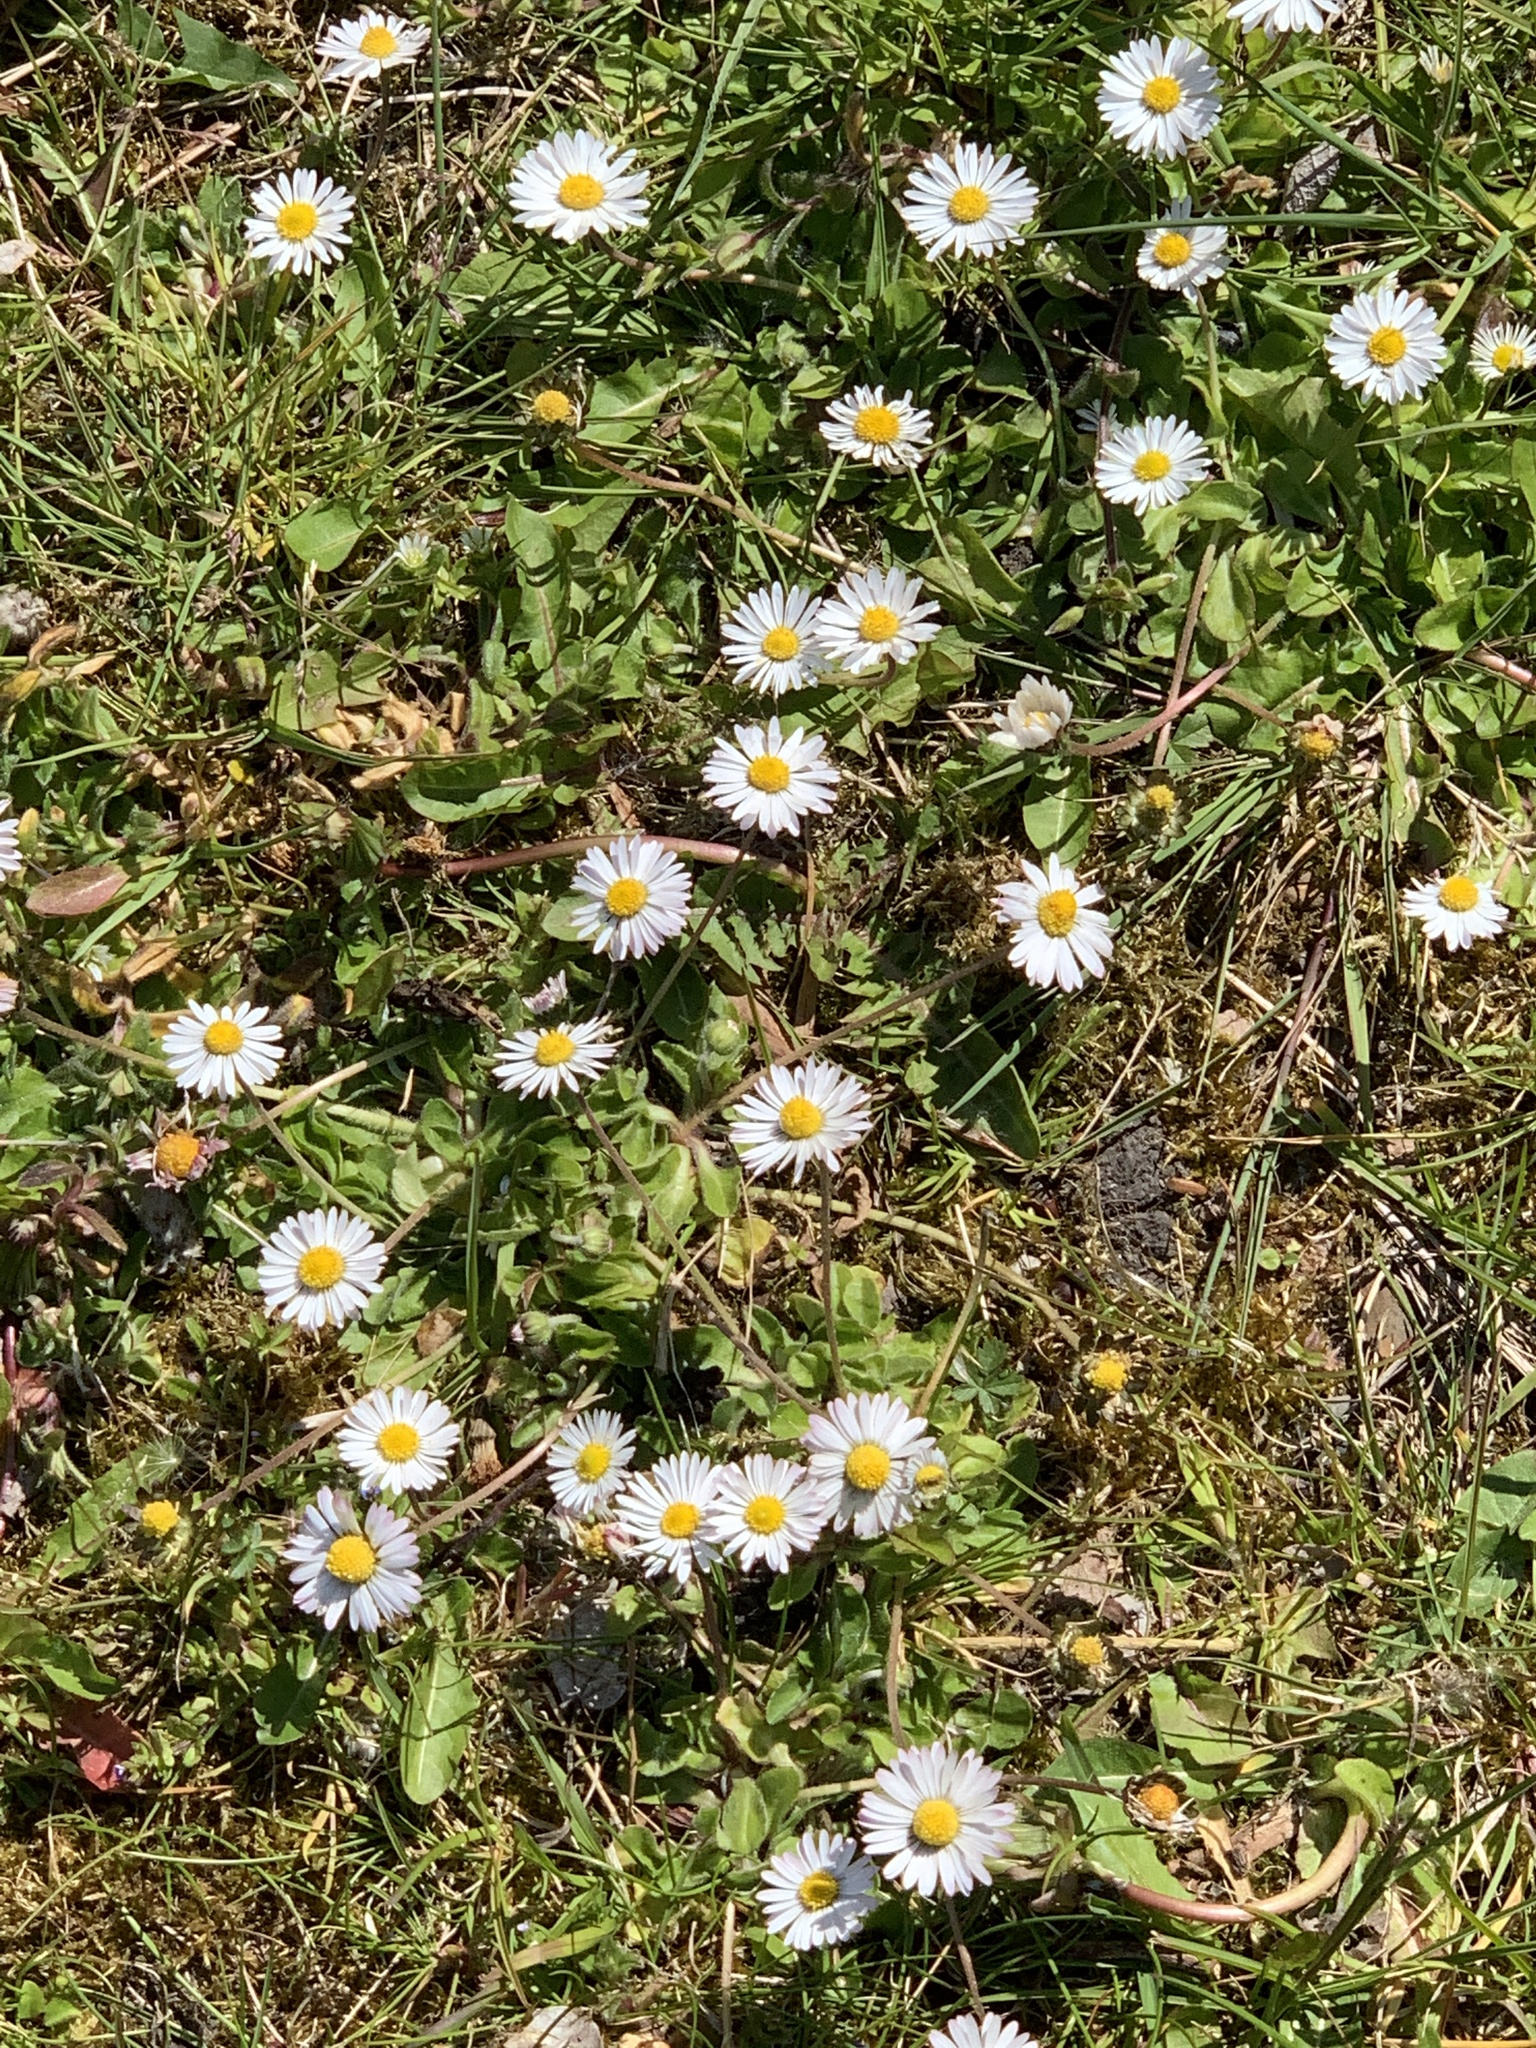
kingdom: Plantae
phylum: Tracheophyta
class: Magnoliopsida
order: Asterales
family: Asteraceae
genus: Bellis
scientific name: Bellis perennis
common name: Lawndaisy
